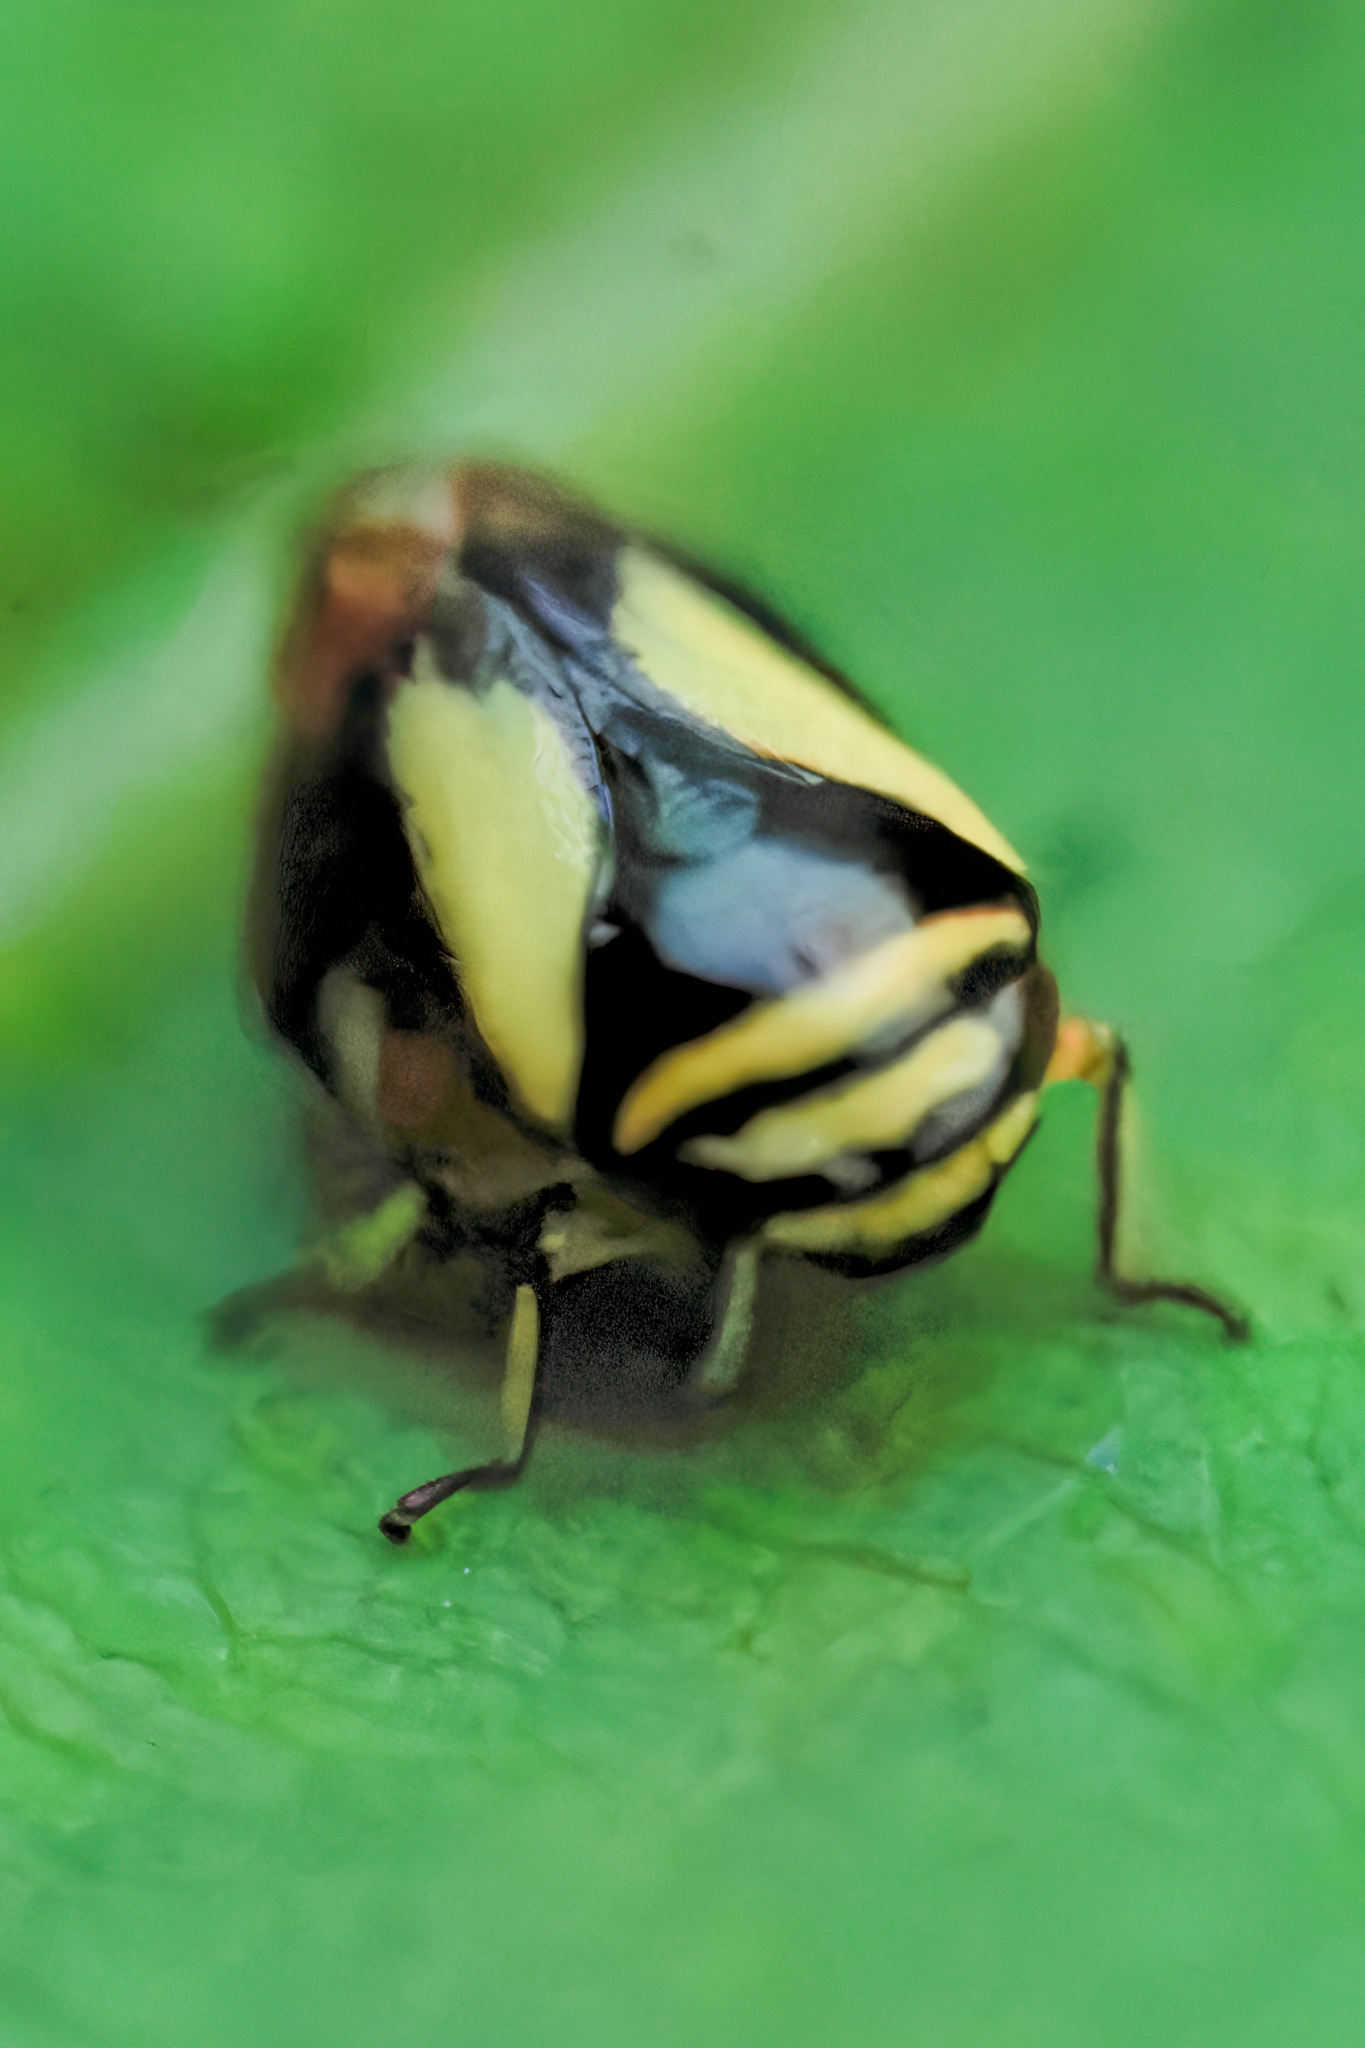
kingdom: Animalia
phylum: Arthropoda
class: Insecta
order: Hemiptera
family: Clastopteridae
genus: Clastoptera
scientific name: Clastoptera proteus
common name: Dogwood spittlebug
